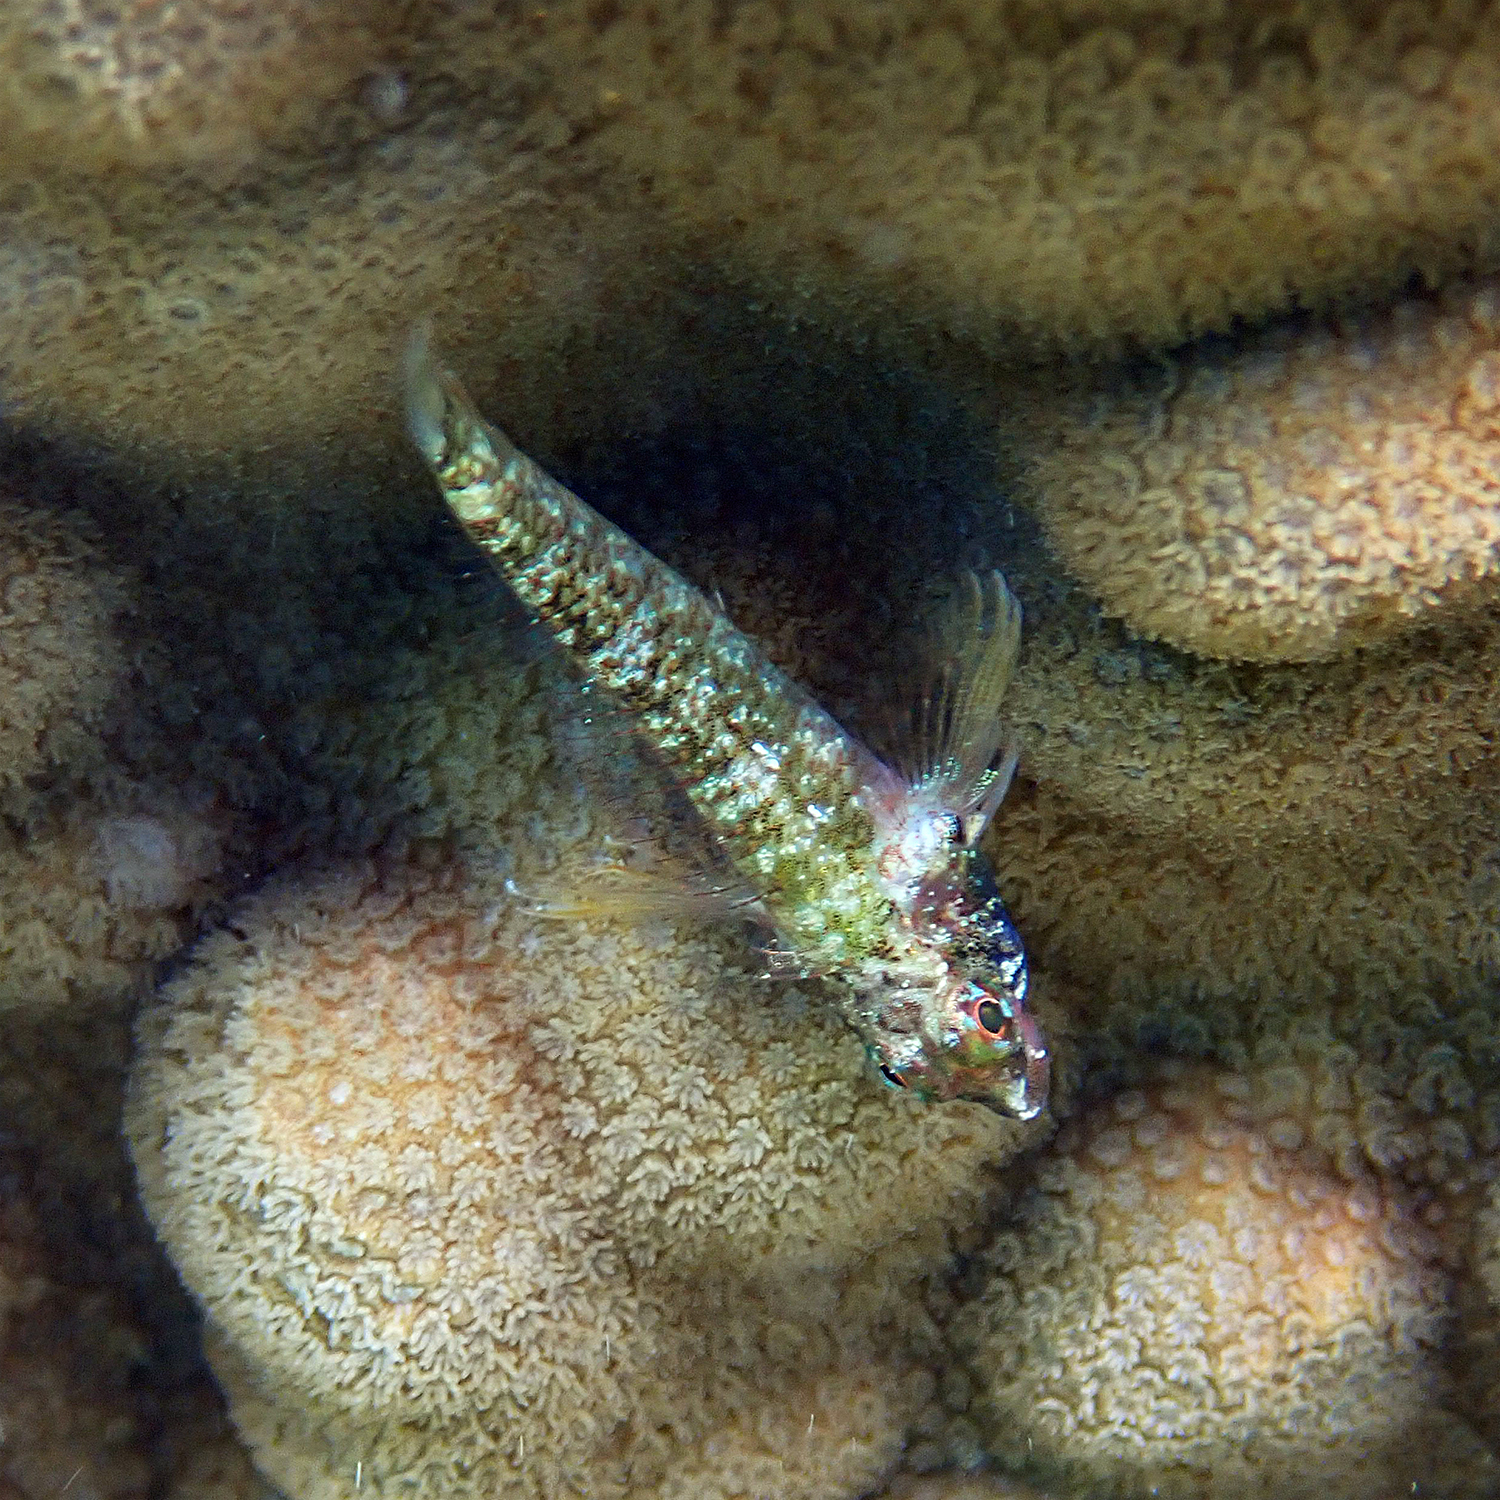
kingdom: Animalia
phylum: Chordata
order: Perciformes
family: Tripterygiidae
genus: Enneapterygius
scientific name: Enneapterygius rufopileus
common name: Lord howe black-head triplefin
